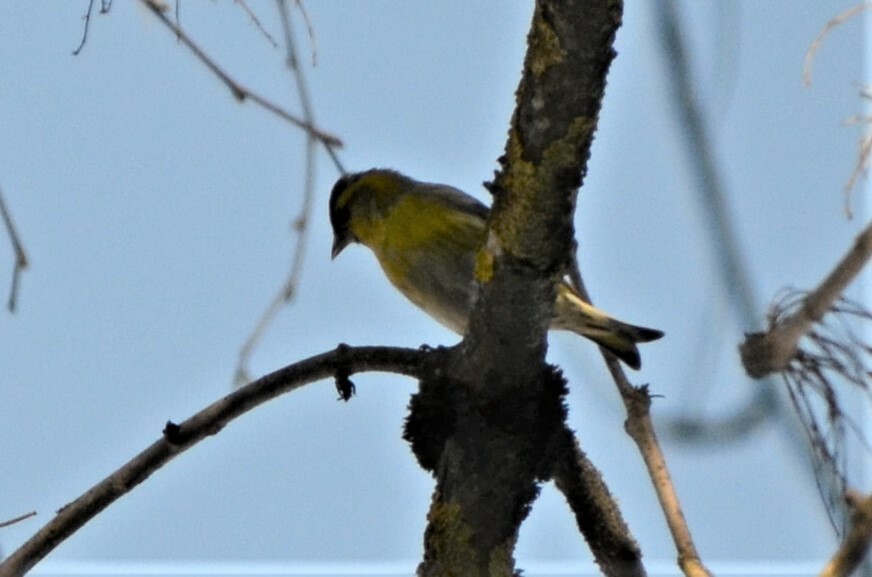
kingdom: Animalia
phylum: Chordata
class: Aves
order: Passeriformes
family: Fringillidae
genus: Spinus
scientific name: Spinus spinus
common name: Eurasian siskin
